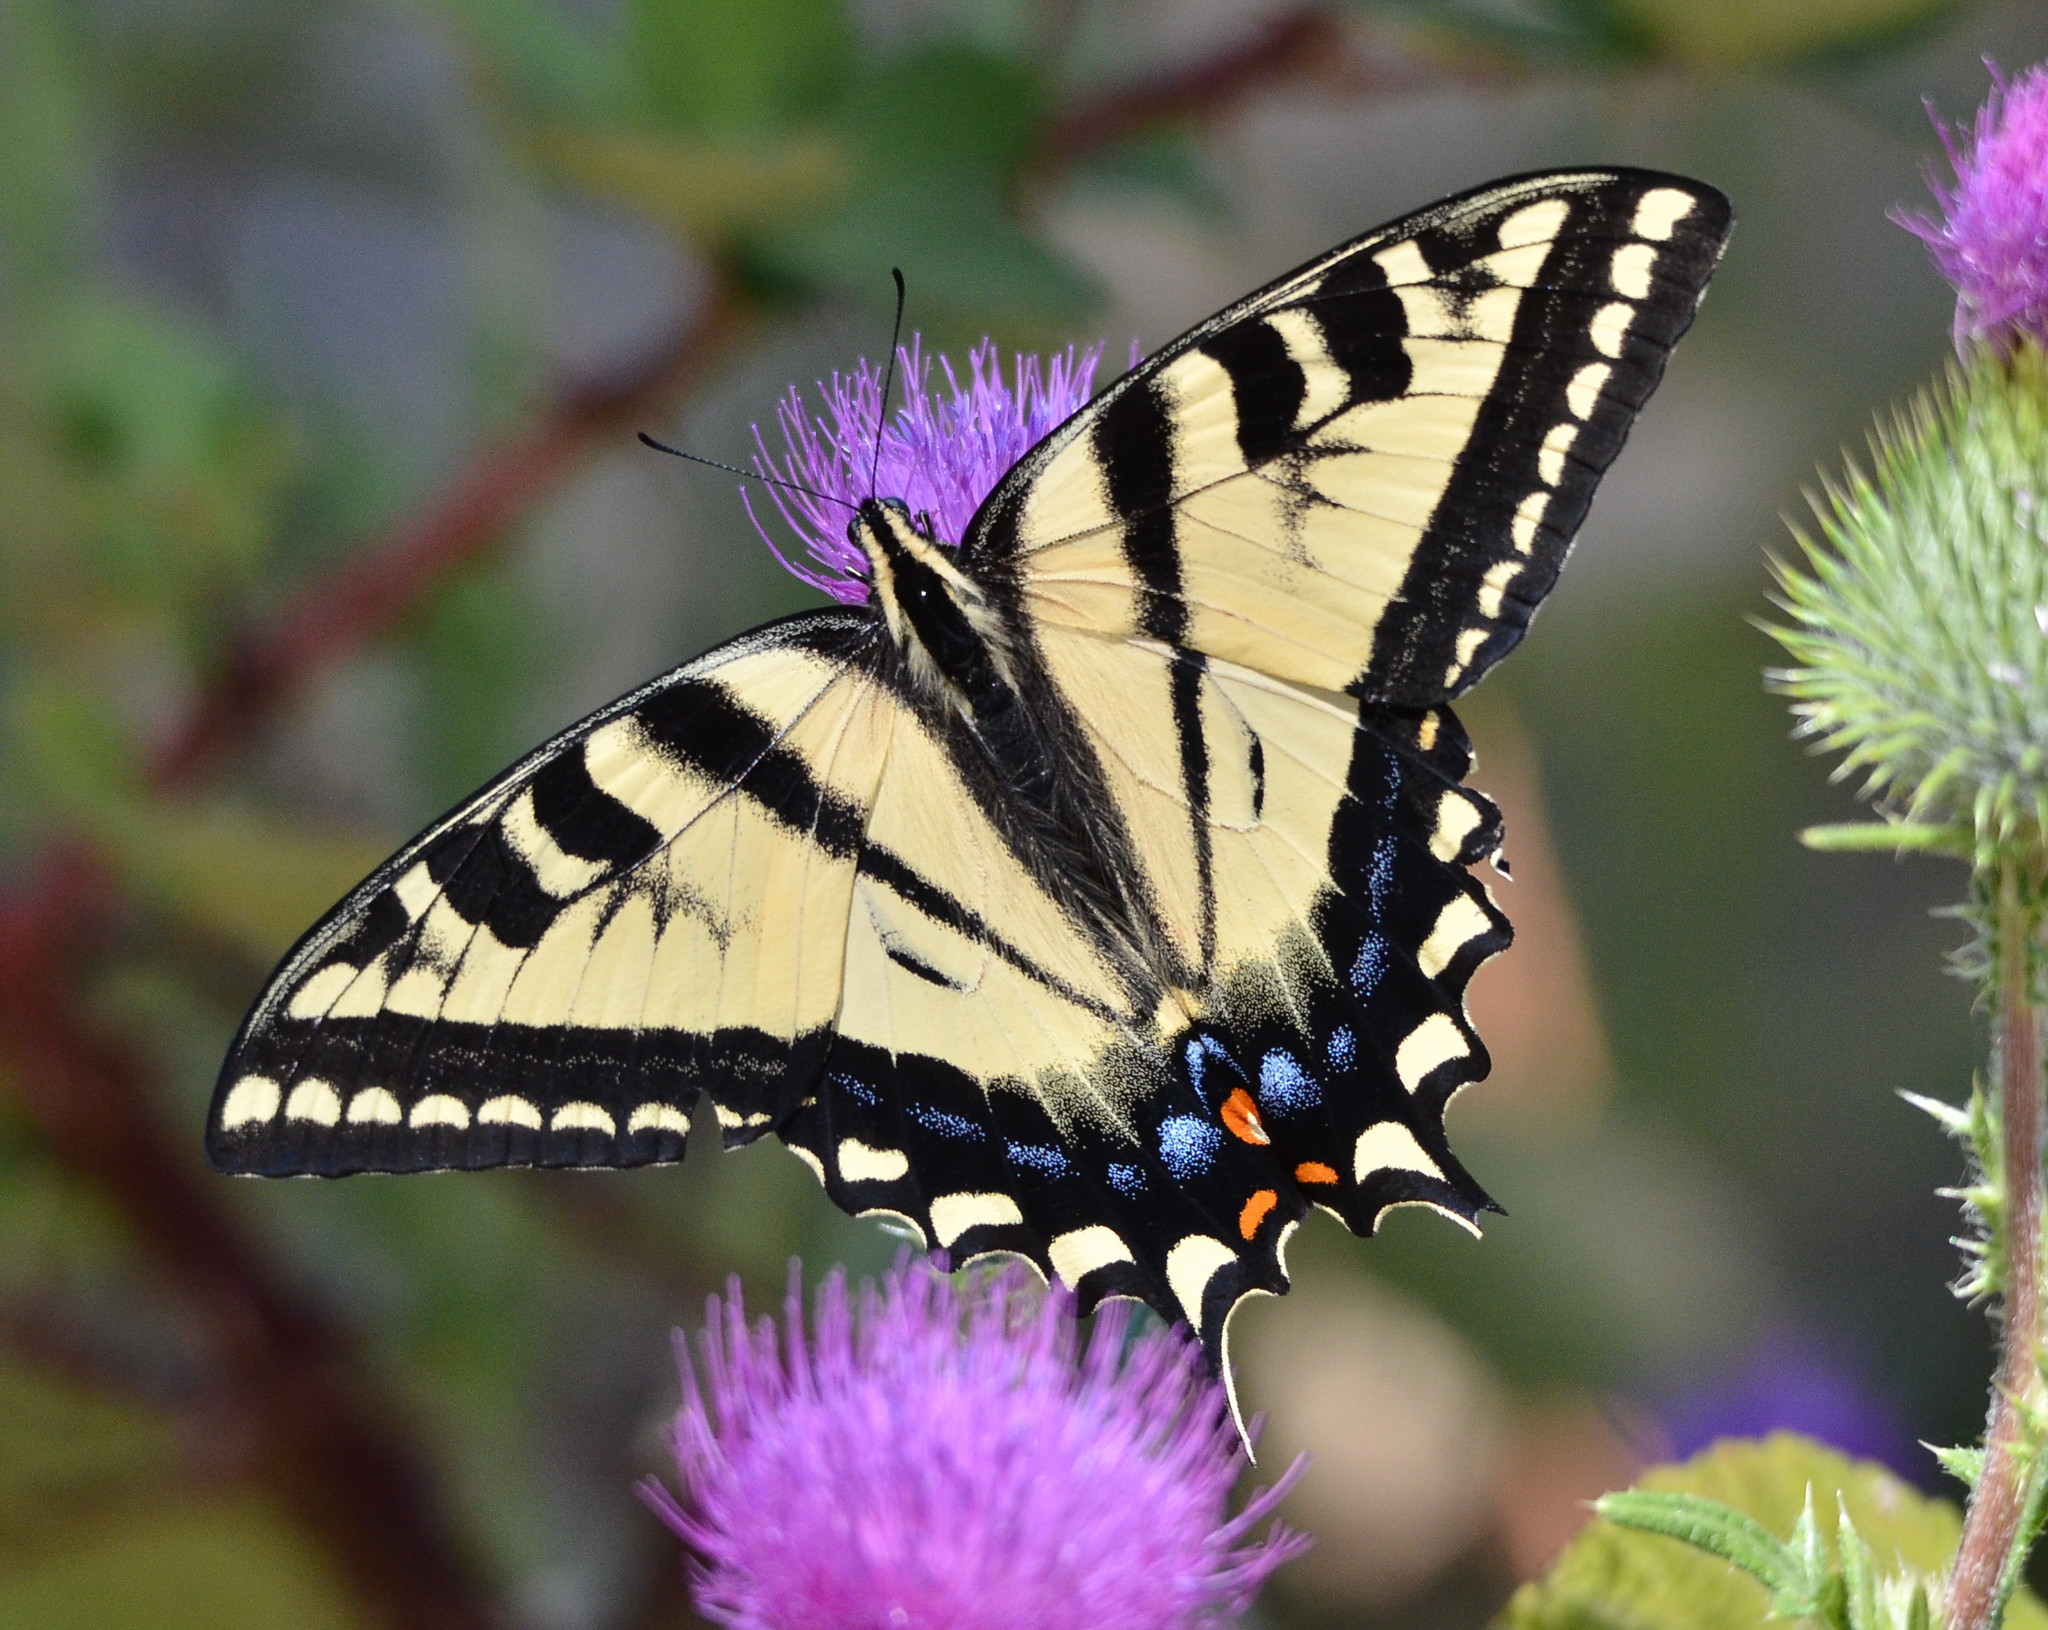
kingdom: Animalia
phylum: Arthropoda
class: Insecta
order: Lepidoptera
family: Papilionidae
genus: Papilio
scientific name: Papilio rutulus
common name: Western tiger swallowtail
